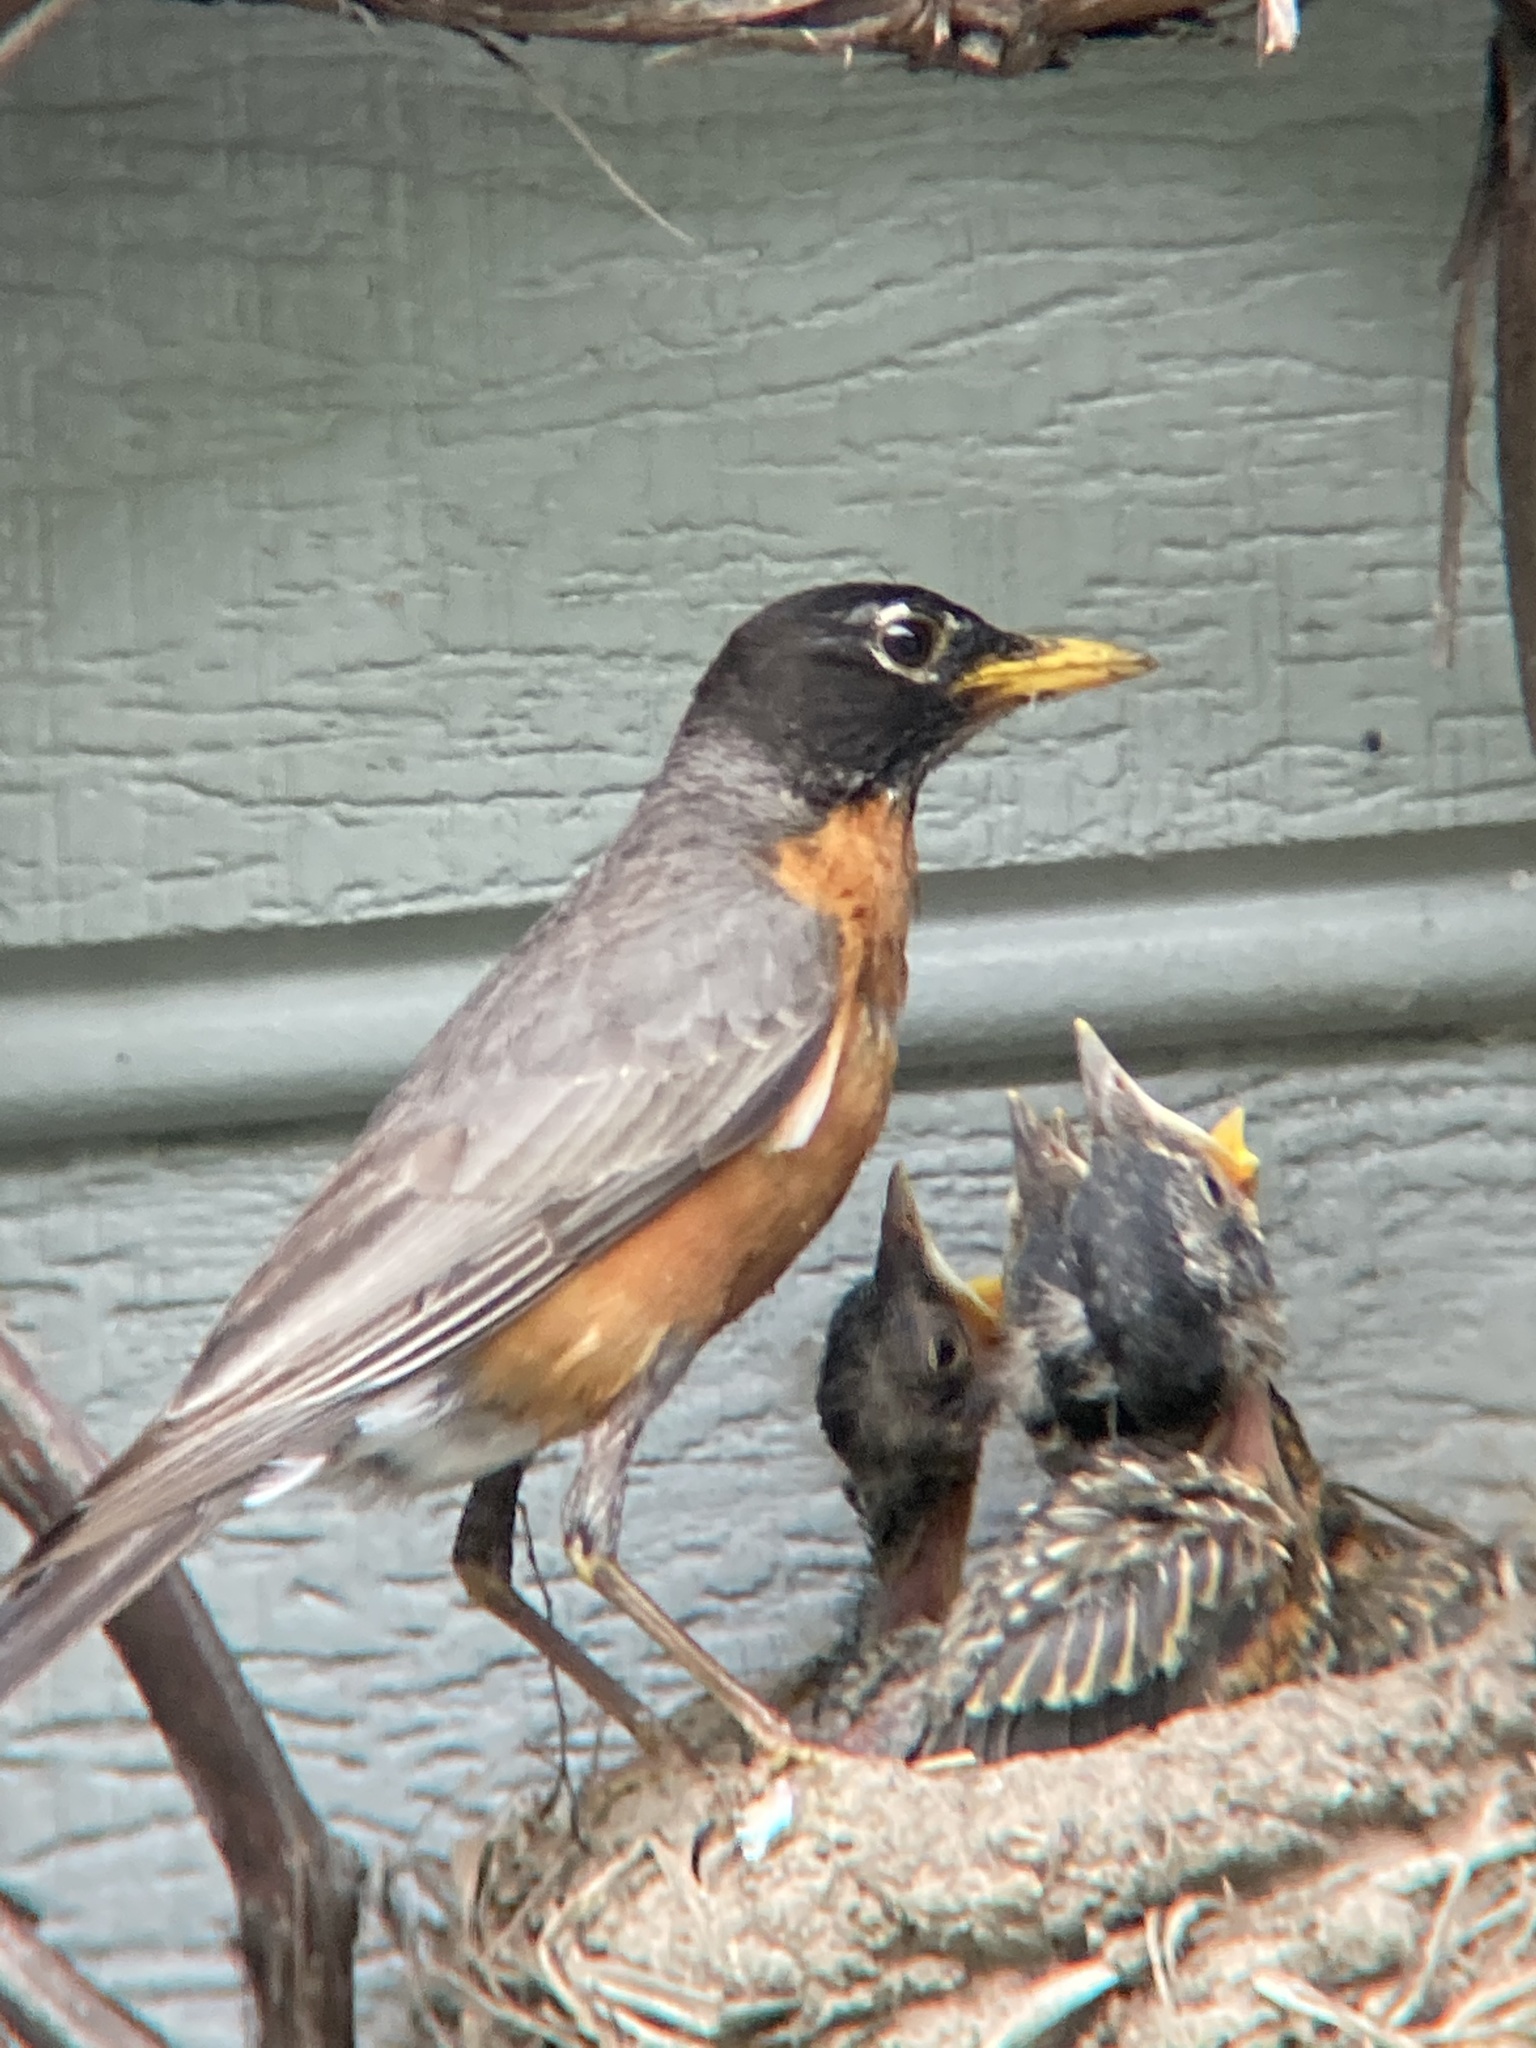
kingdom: Animalia
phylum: Chordata
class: Aves
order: Passeriformes
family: Turdidae
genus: Turdus
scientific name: Turdus migratorius
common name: American robin
